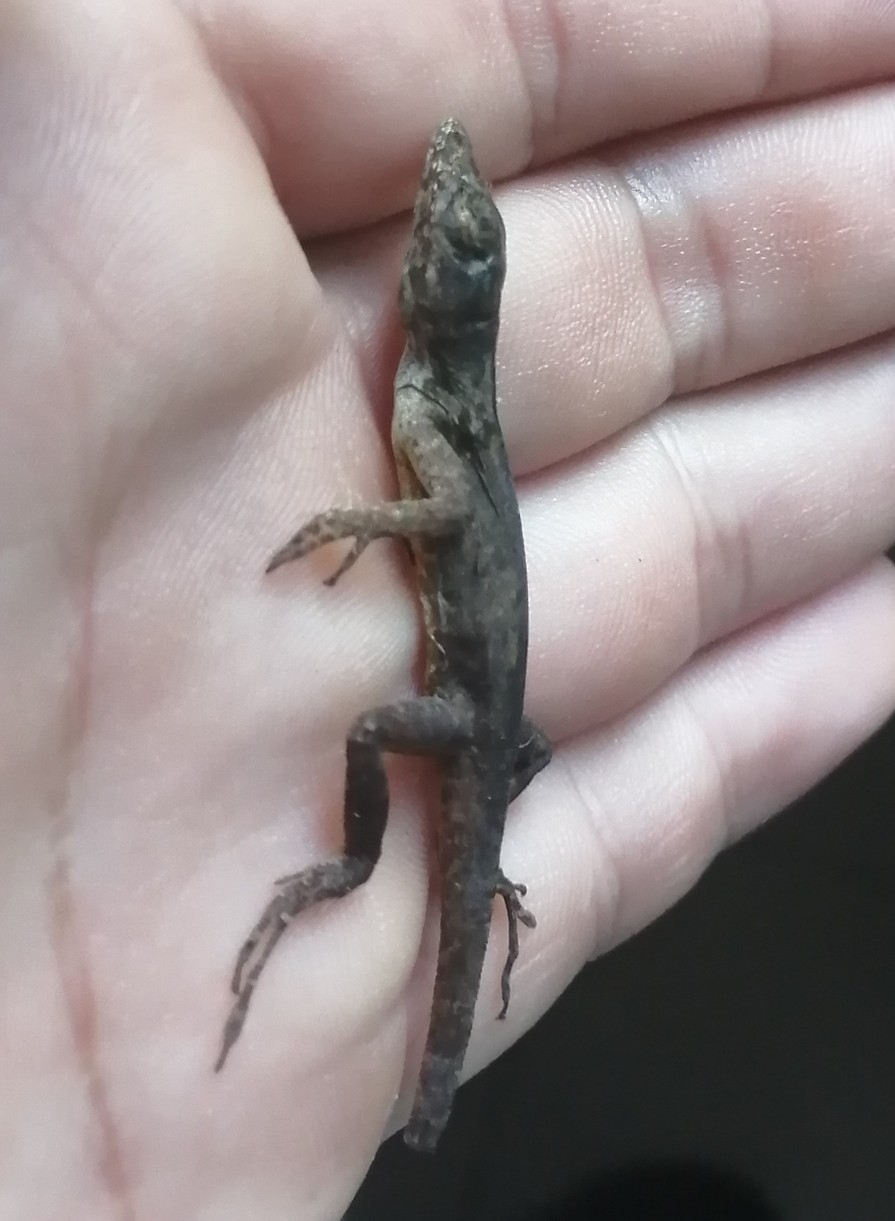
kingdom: Animalia
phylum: Chordata
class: Squamata
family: Dactyloidae
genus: Anolis
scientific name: Anolis sagrei
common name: Brown anole
